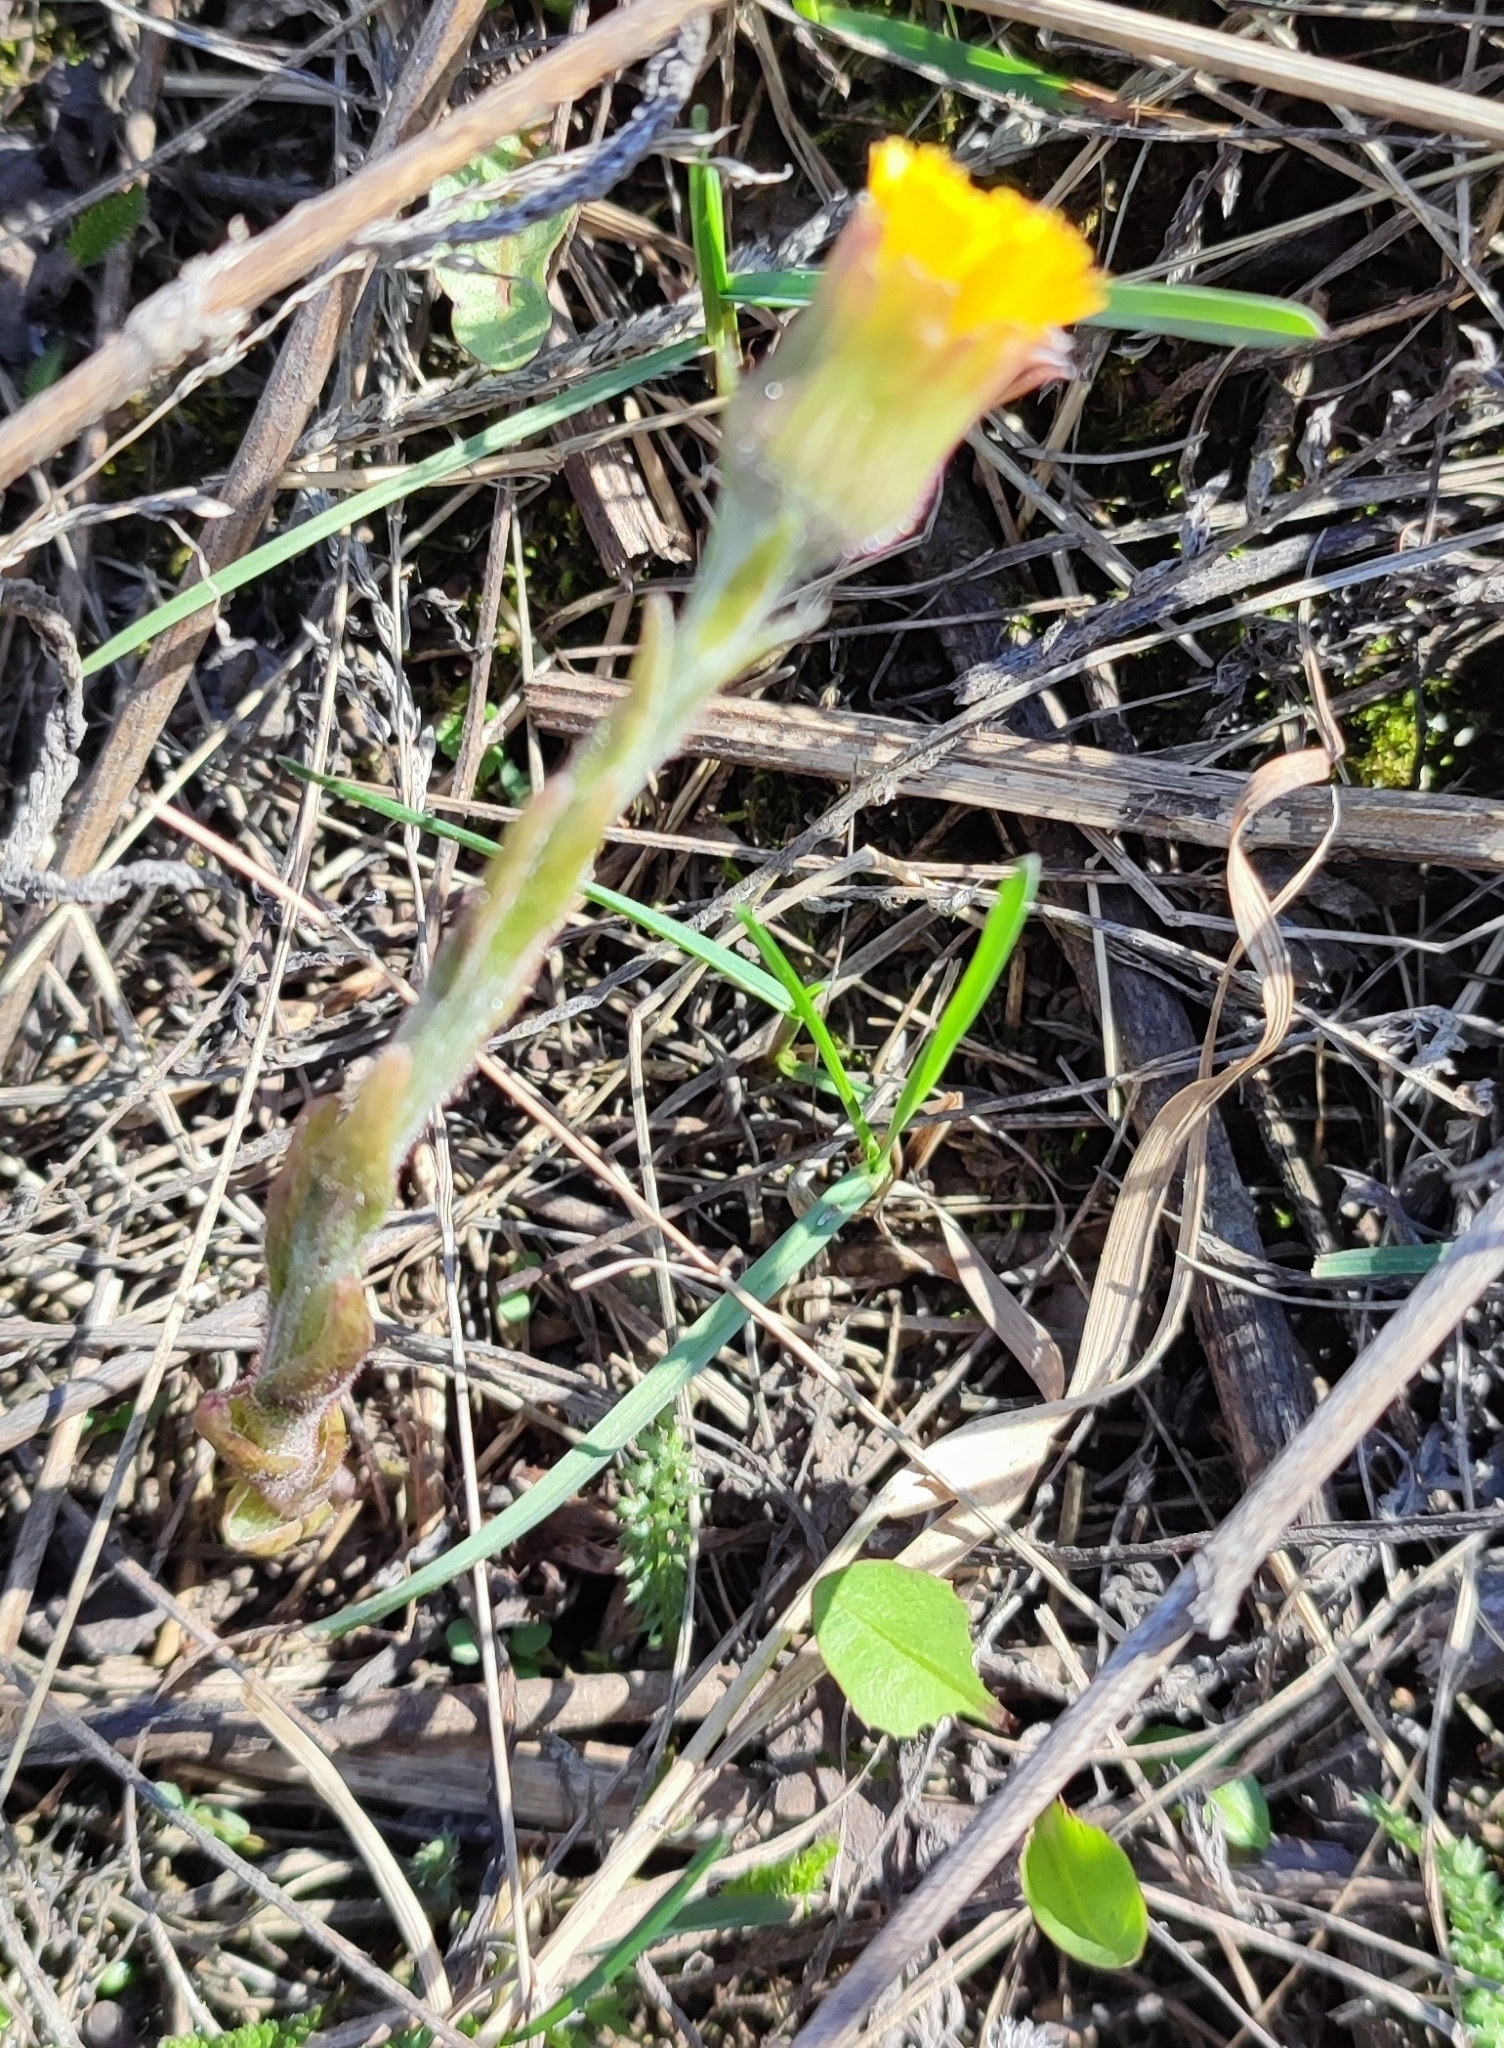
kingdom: Plantae
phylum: Tracheophyta
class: Magnoliopsida
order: Asterales
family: Asteraceae
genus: Tussilago
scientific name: Tussilago farfara
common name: Coltsfoot
